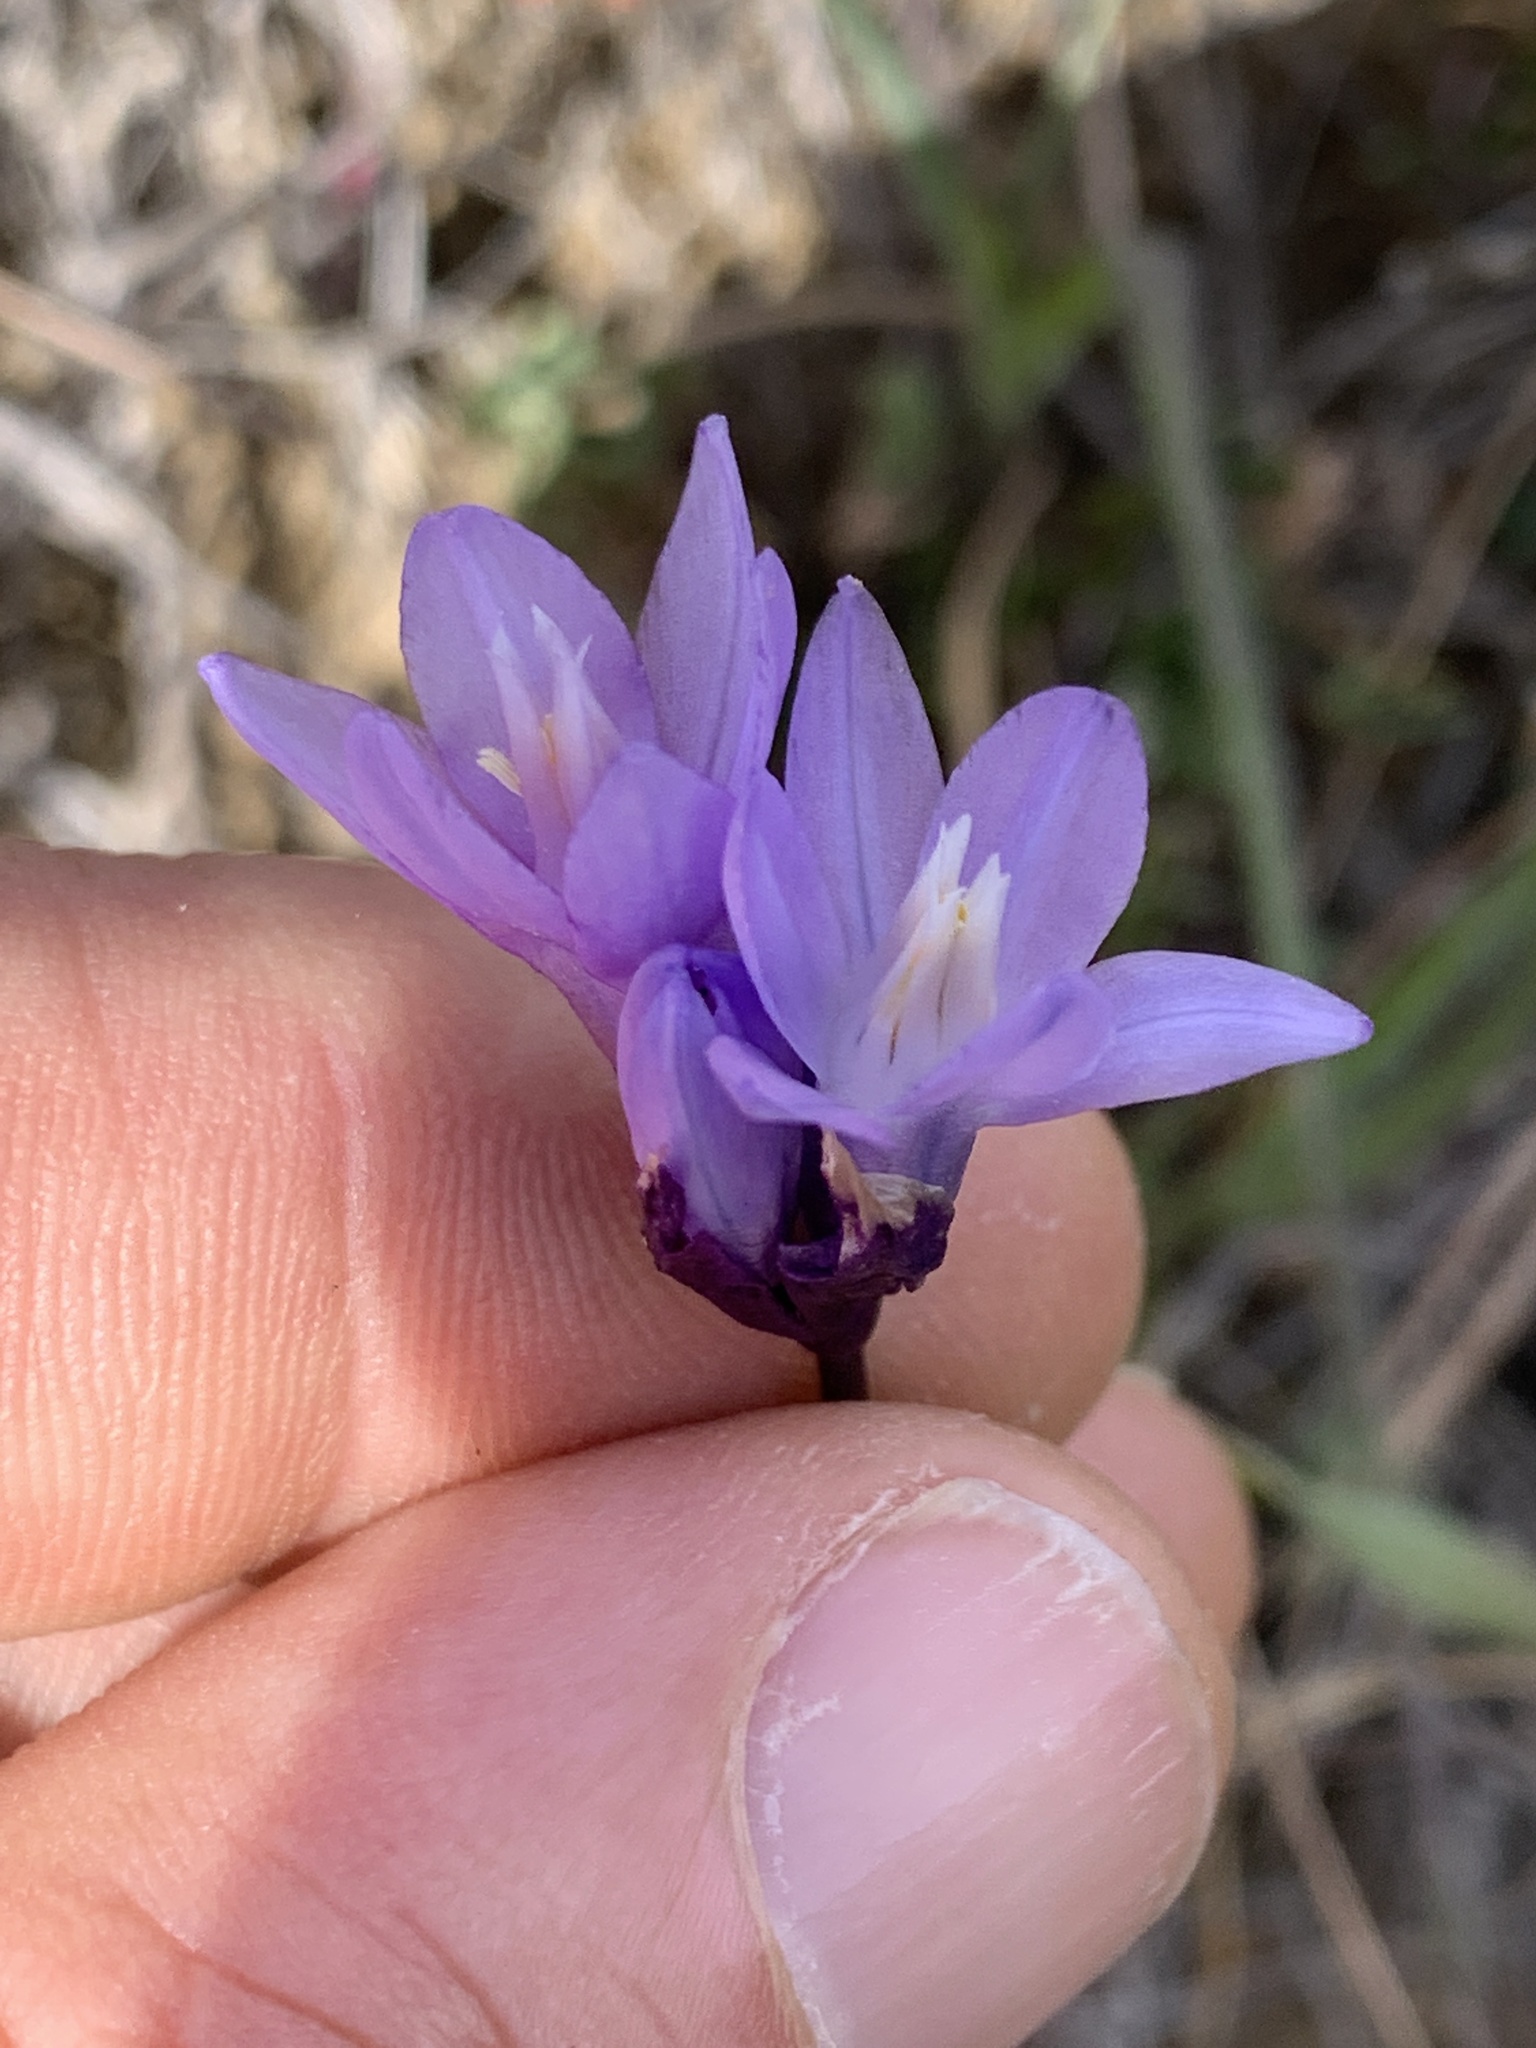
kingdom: Plantae
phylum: Tracheophyta
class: Liliopsida
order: Asparagales
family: Asparagaceae
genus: Dipterostemon
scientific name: Dipterostemon capitatus
